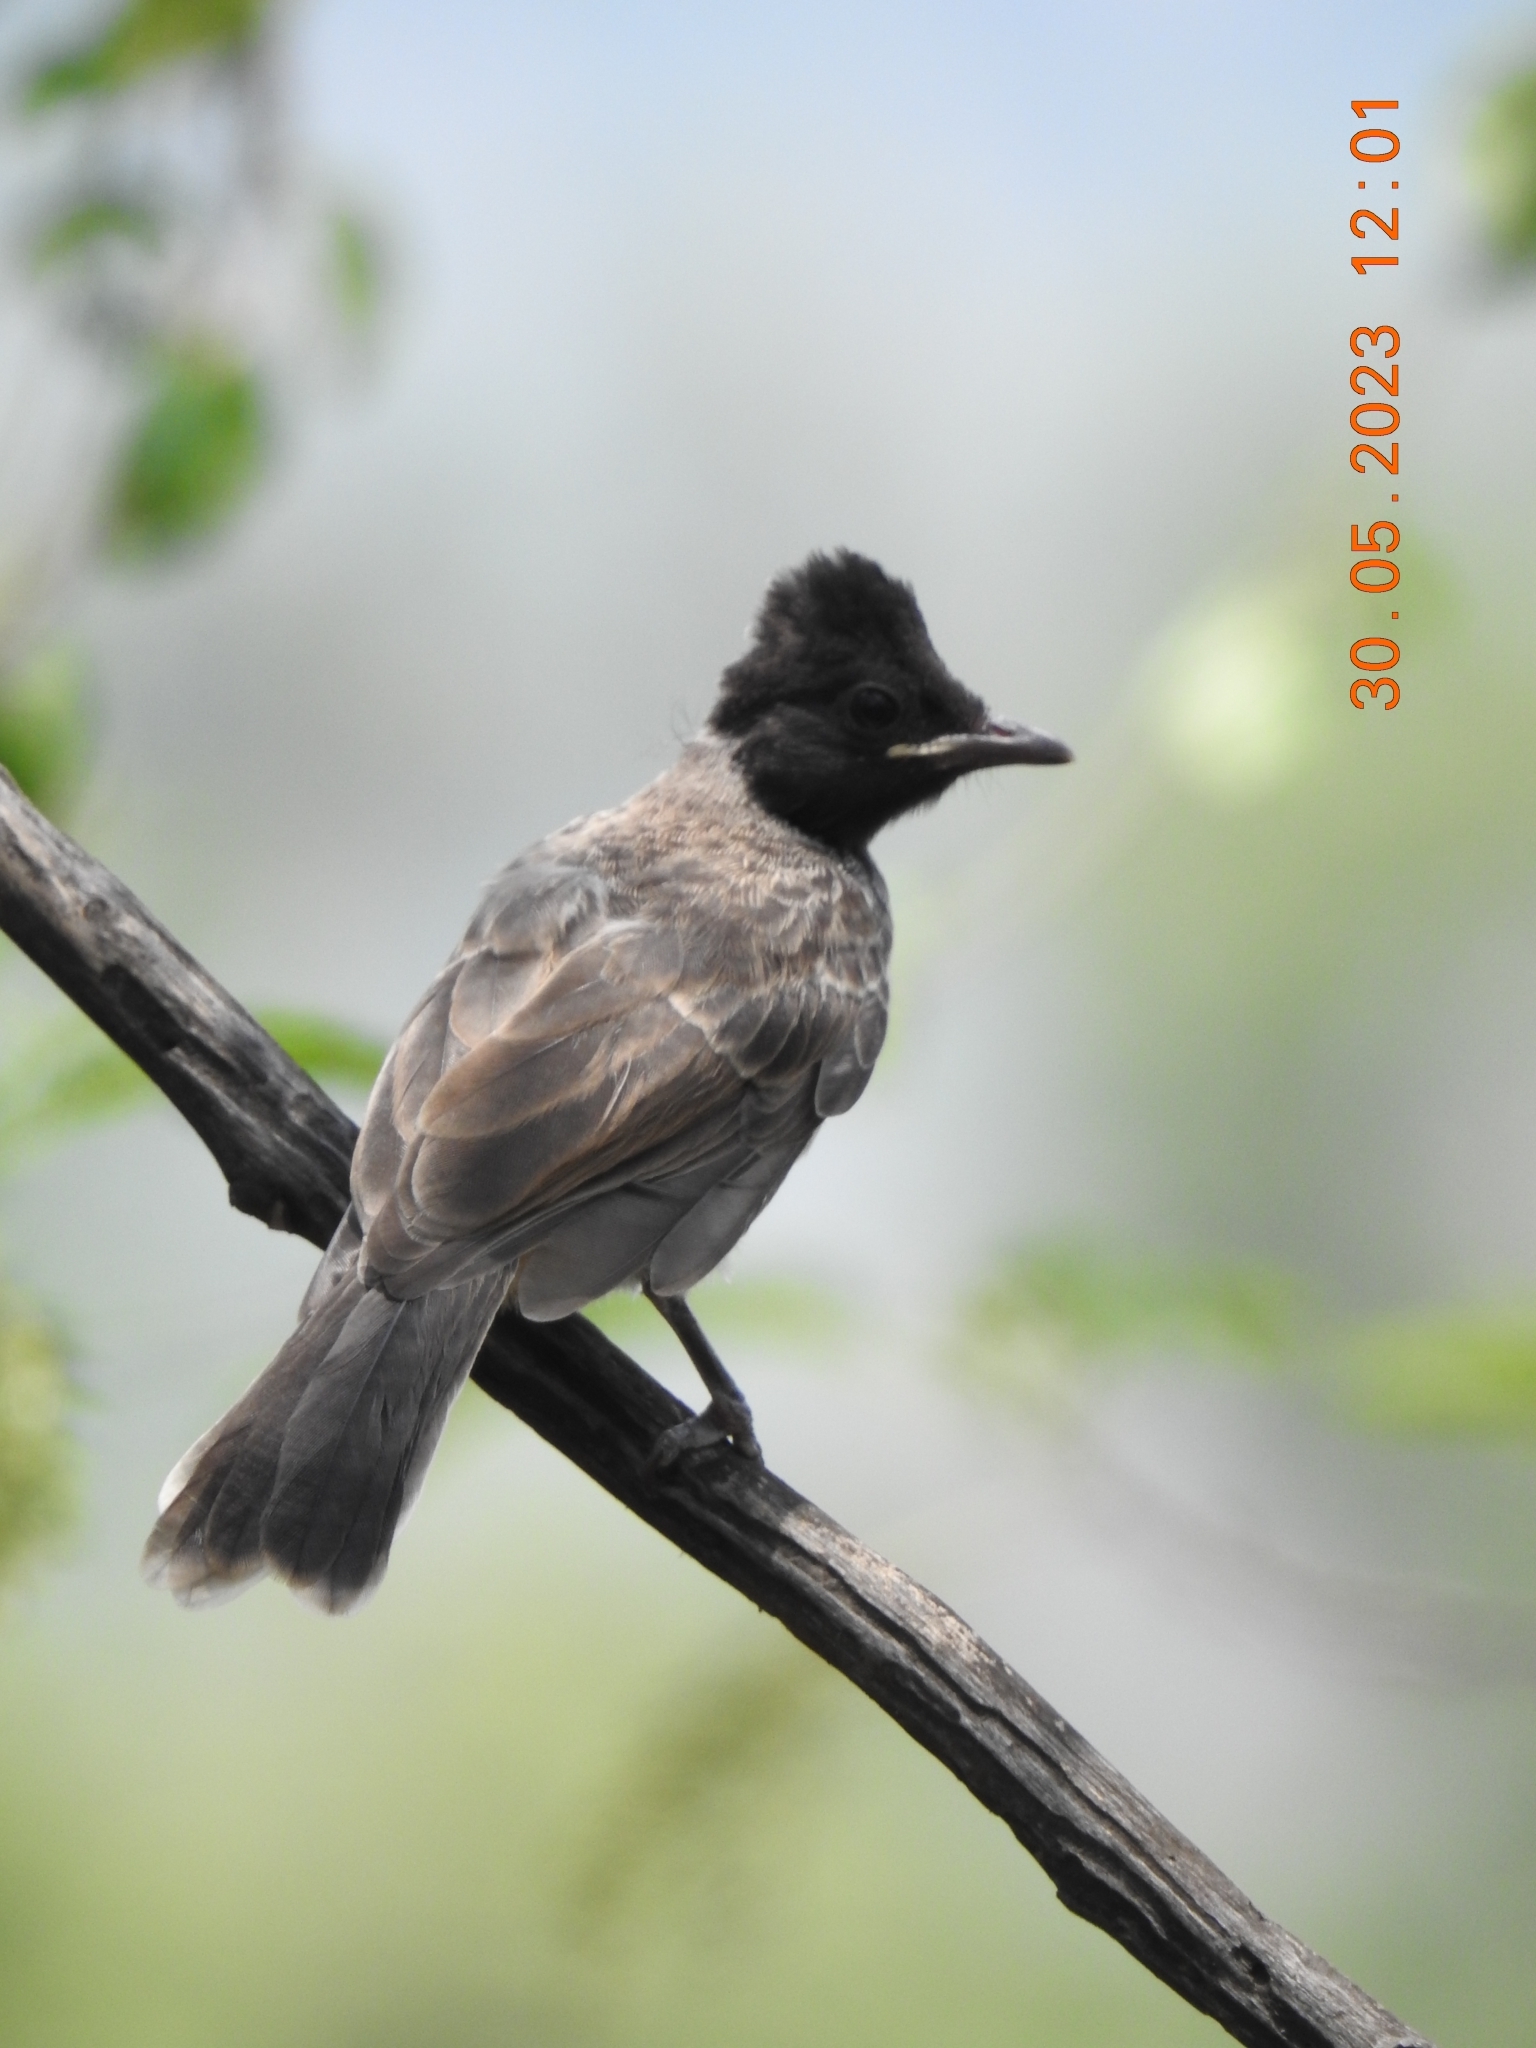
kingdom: Animalia
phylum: Chordata
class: Aves
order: Passeriformes
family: Pycnonotidae
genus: Pycnonotus
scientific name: Pycnonotus cafer
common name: Red-vented bulbul
